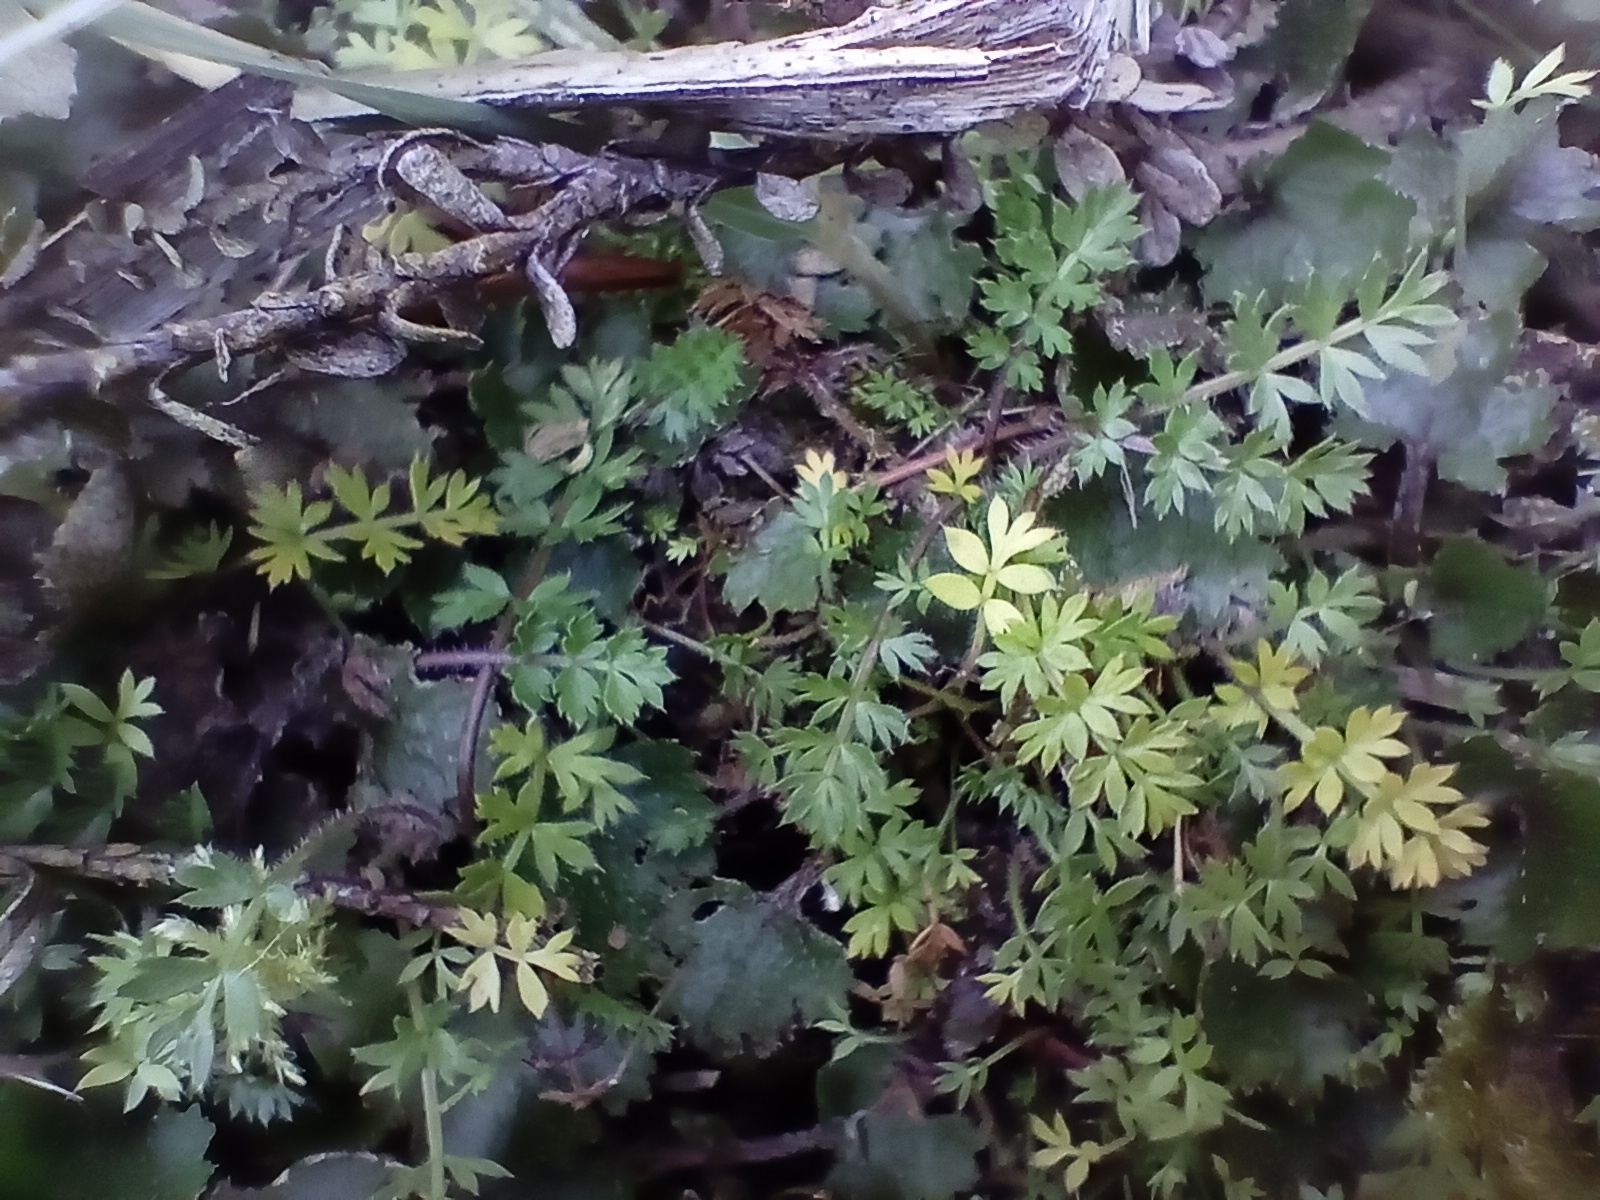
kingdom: Plantae
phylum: Tracheophyta
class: Magnoliopsida
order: Apiales
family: Apiaceae
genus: Chaerophyllum
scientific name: Chaerophyllum colensoi
